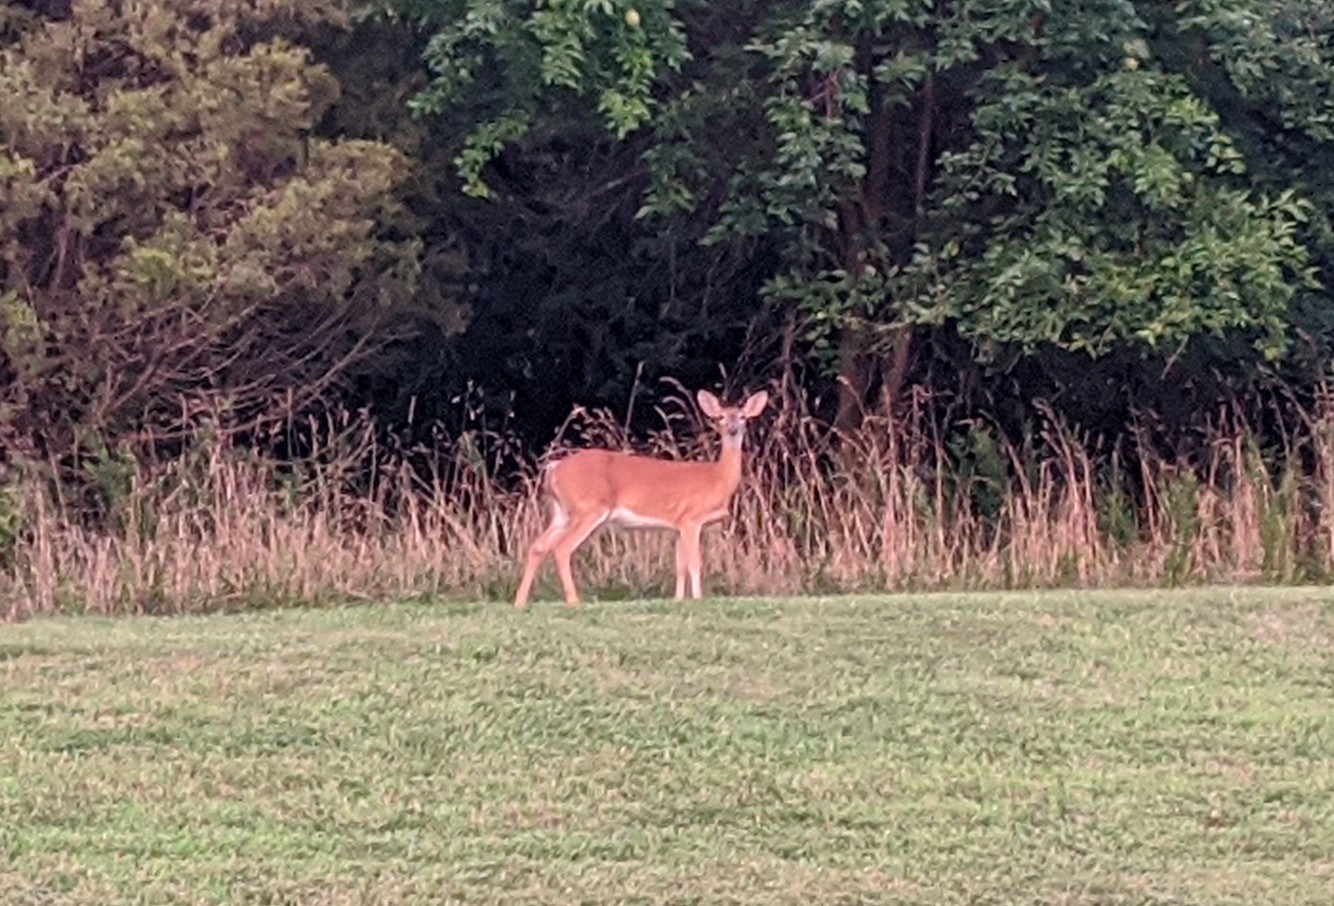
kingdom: Animalia
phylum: Chordata
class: Mammalia
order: Artiodactyla
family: Cervidae
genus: Odocoileus
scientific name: Odocoileus virginianus
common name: White-tailed deer
